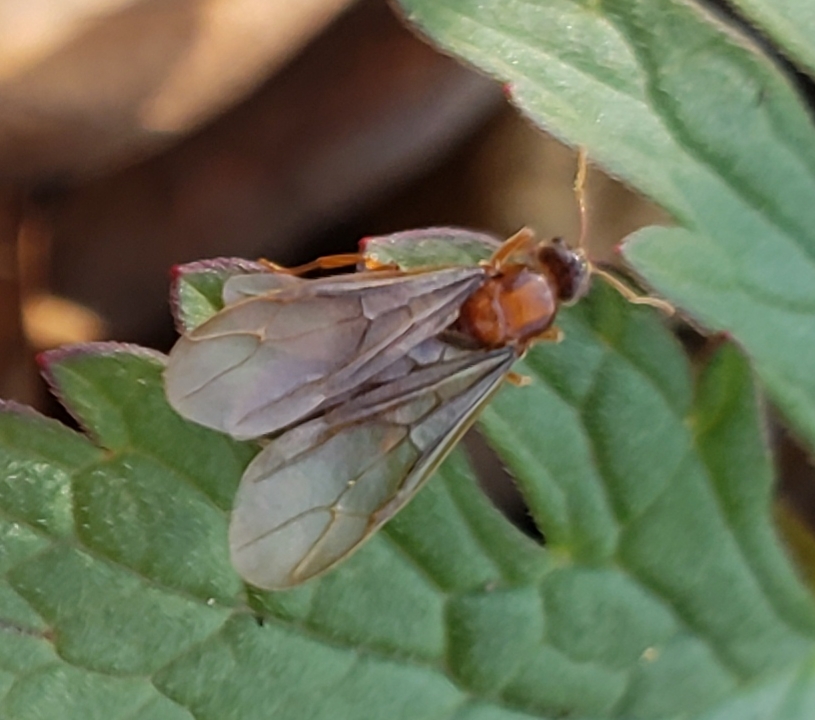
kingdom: Animalia
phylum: Arthropoda
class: Insecta
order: Hymenoptera
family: Formicidae
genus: Prenolepis
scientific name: Prenolepis imparis
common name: Small honey ant
